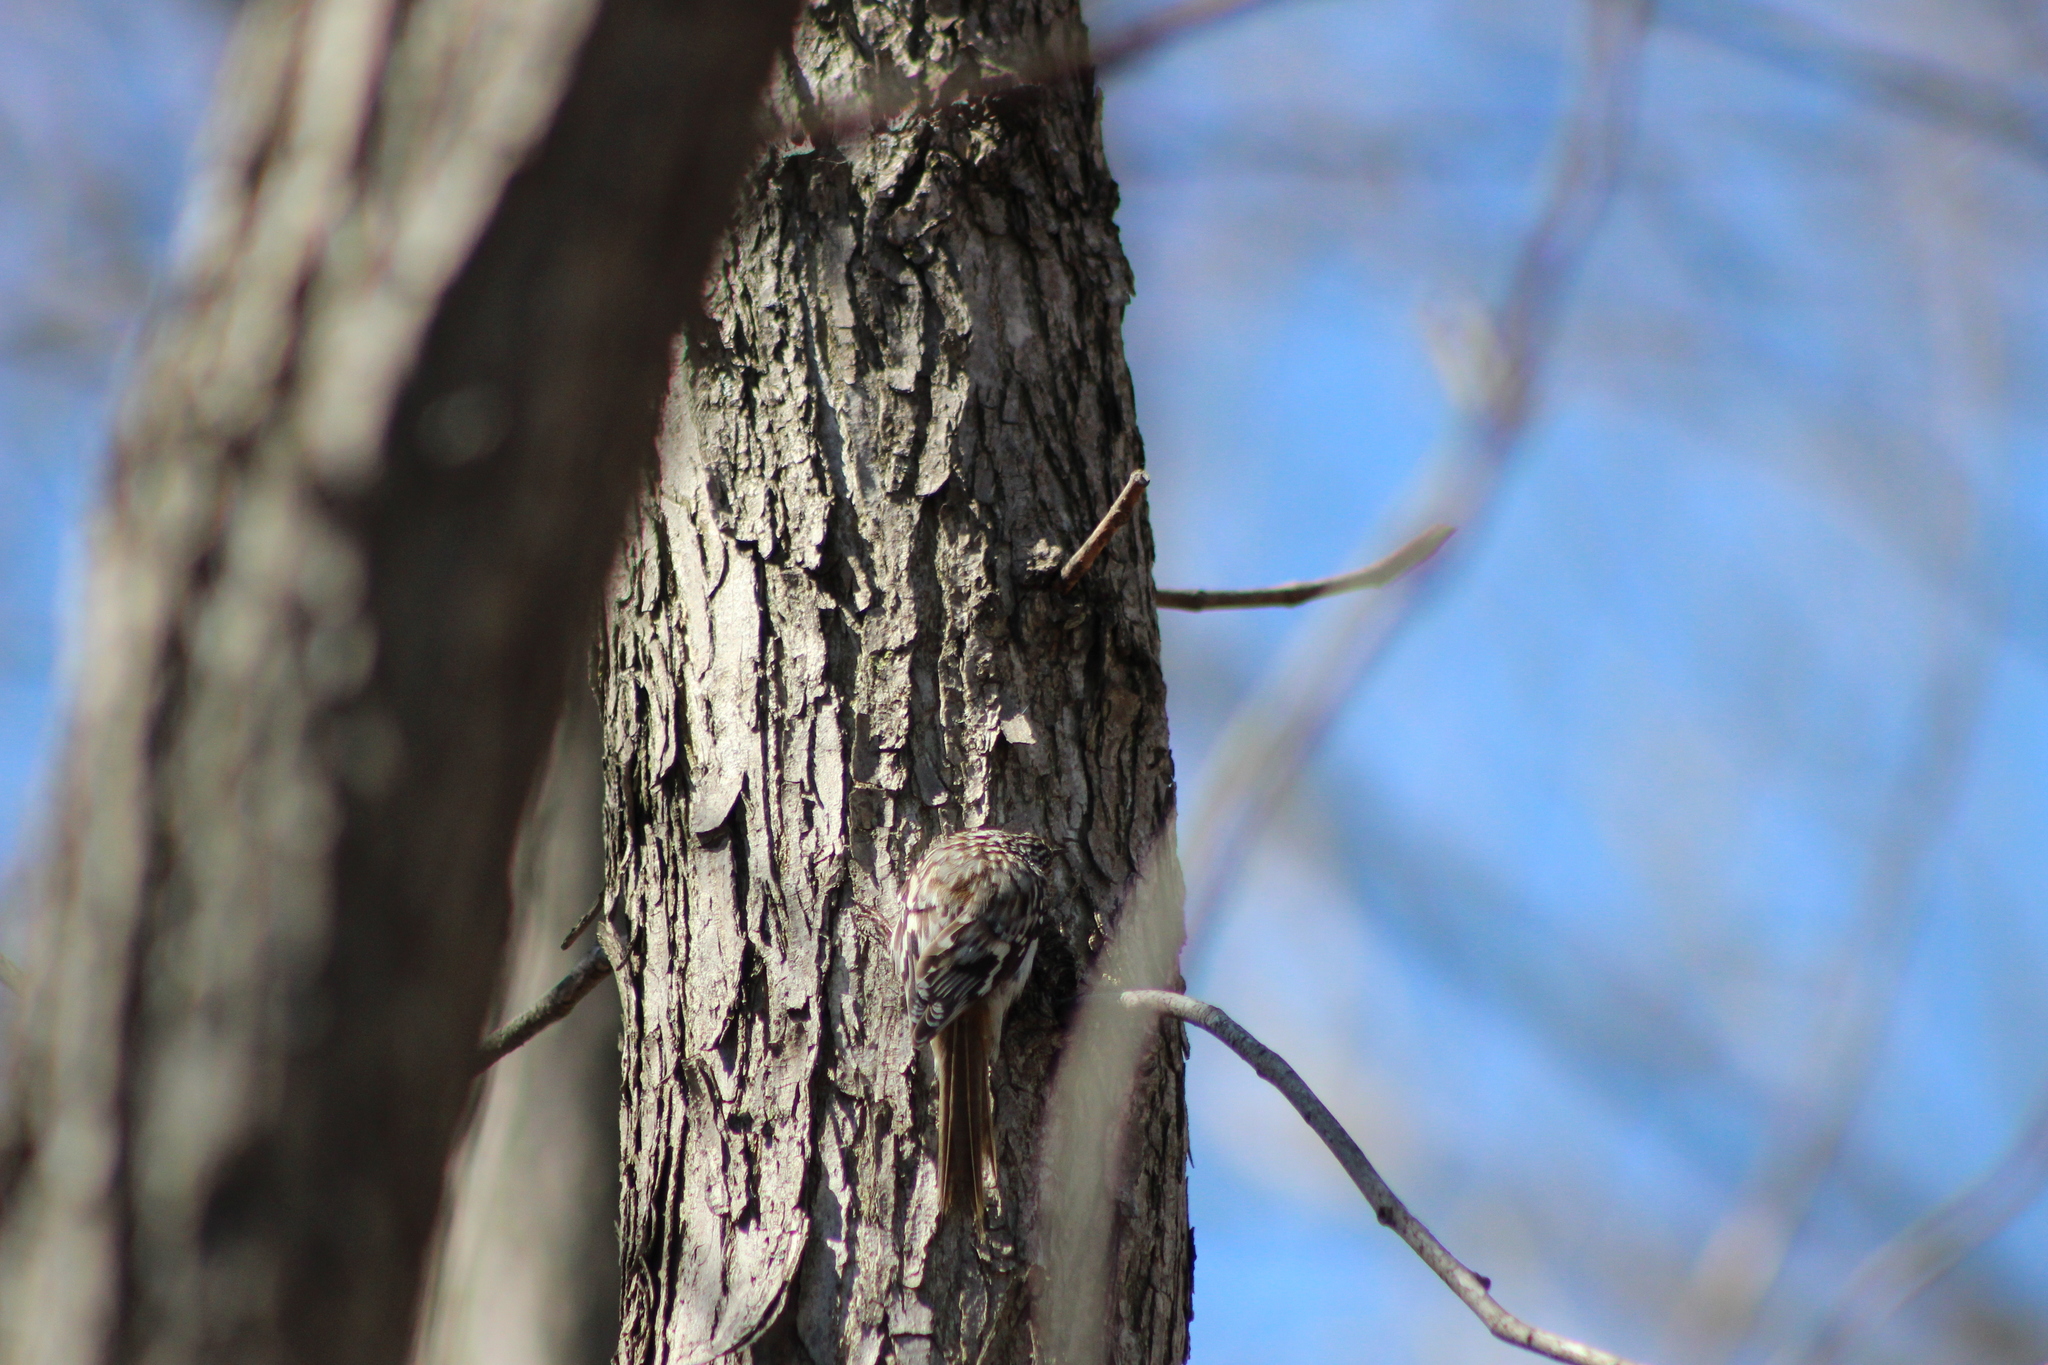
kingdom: Animalia
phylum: Chordata
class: Aves
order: Passeriformes
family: Certhiidae
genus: Certhia
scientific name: Certhia americana
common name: Brown creeper
